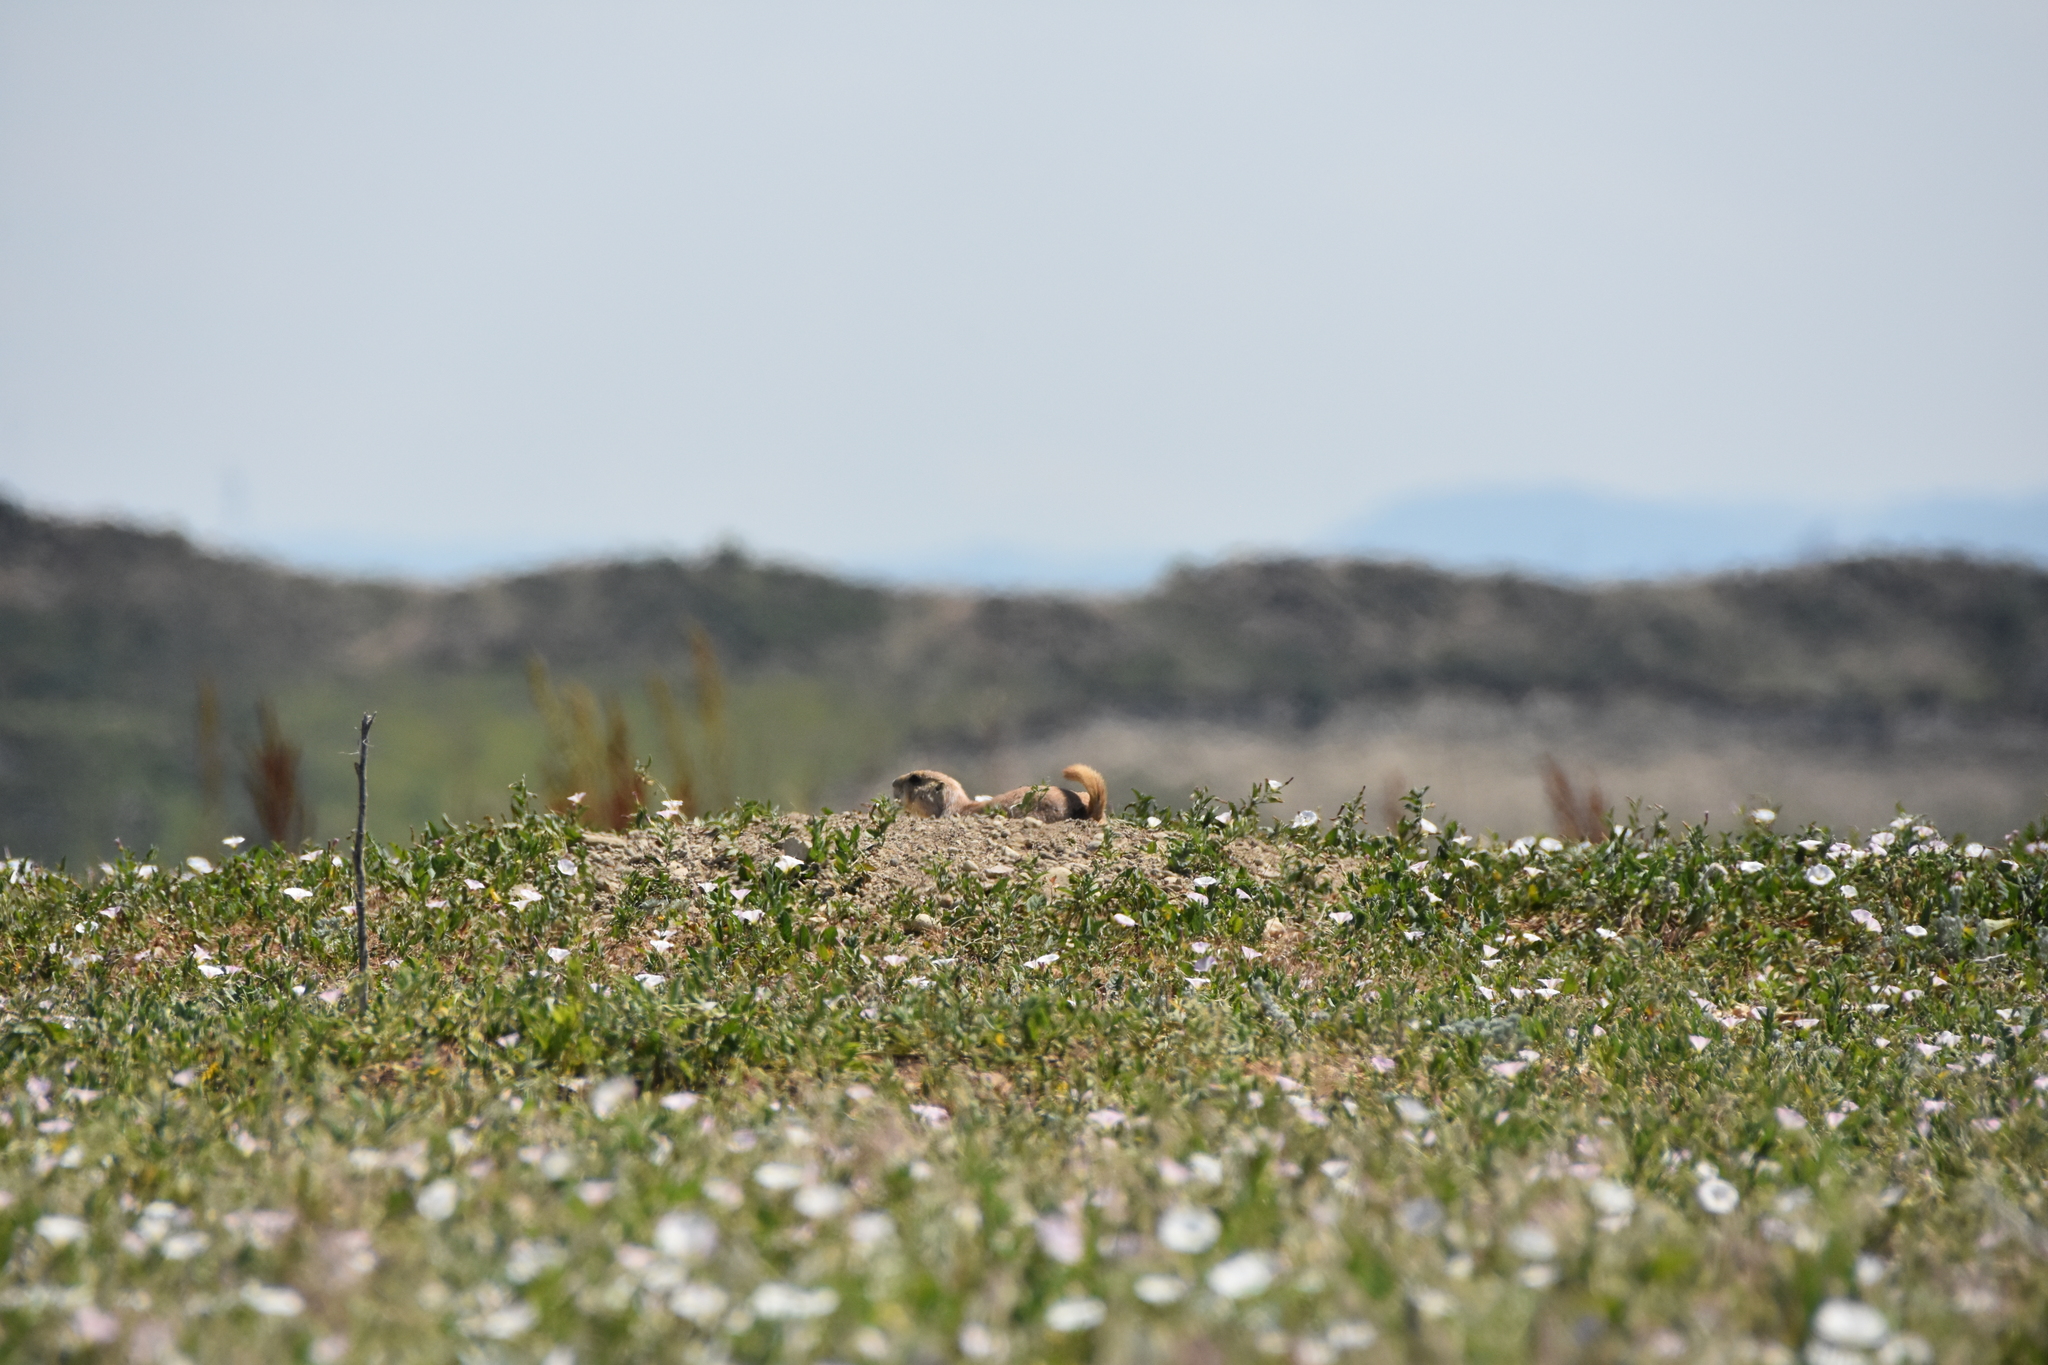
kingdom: Animalia
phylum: Chordata
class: Mammalia
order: Rodentia
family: Sciuridae
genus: Cynomys
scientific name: Cynomys ludovicianus
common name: Black-tailed prairie dog
